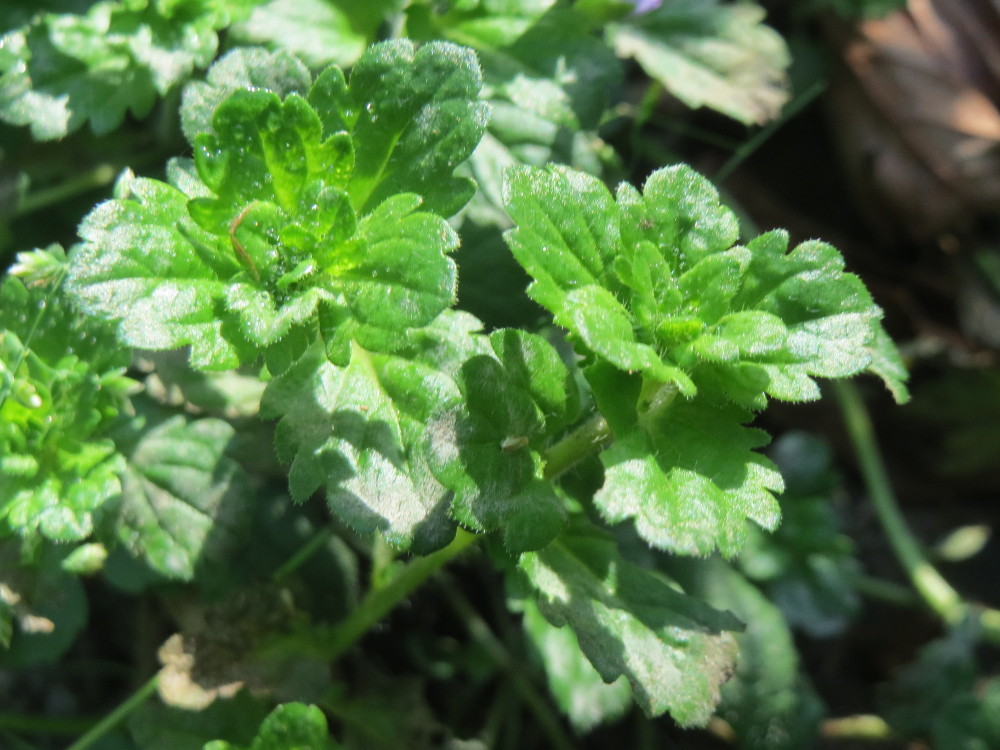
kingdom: Plantae
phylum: Tracheophyta
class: Magnoliopsida
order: Lamiales
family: Plantaginaceae
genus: Veronica
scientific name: Veronica persica
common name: Common field-speedwell
